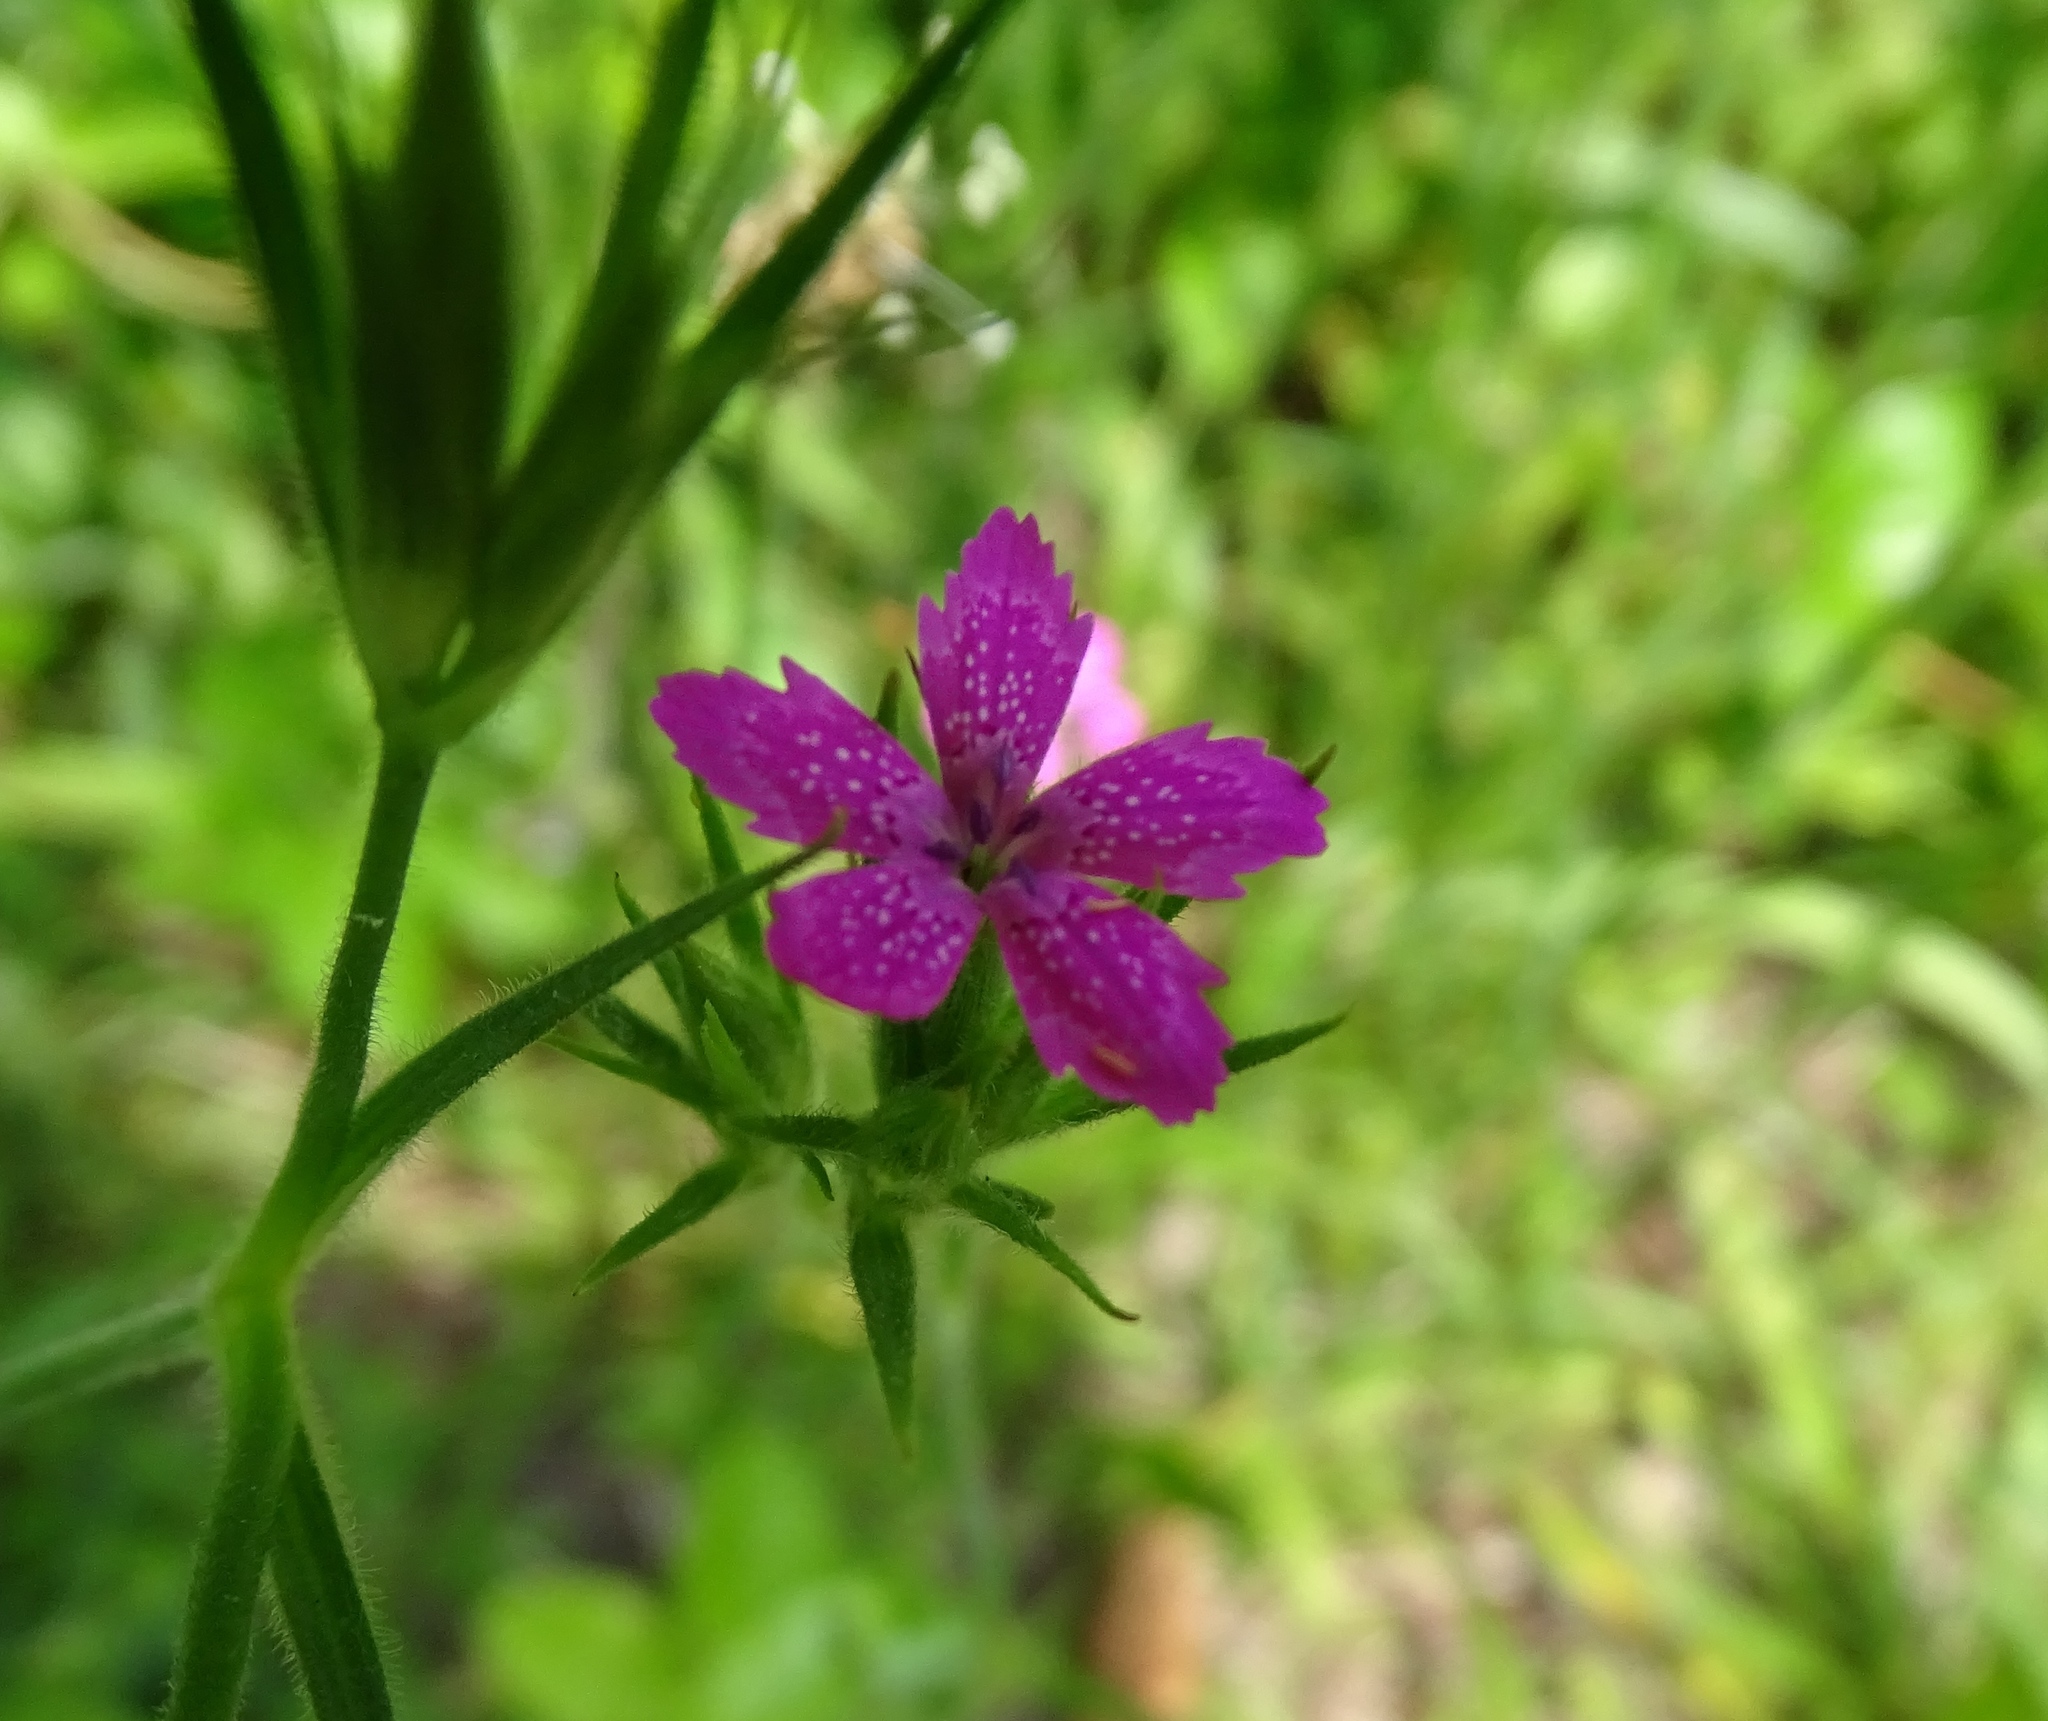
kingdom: Plantae
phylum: Tracheophyta
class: Magnoliopsida
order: Caryophyllales
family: Caryophyllaceae
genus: Dianthus
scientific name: Dianthus armeria
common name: Deptford pink
